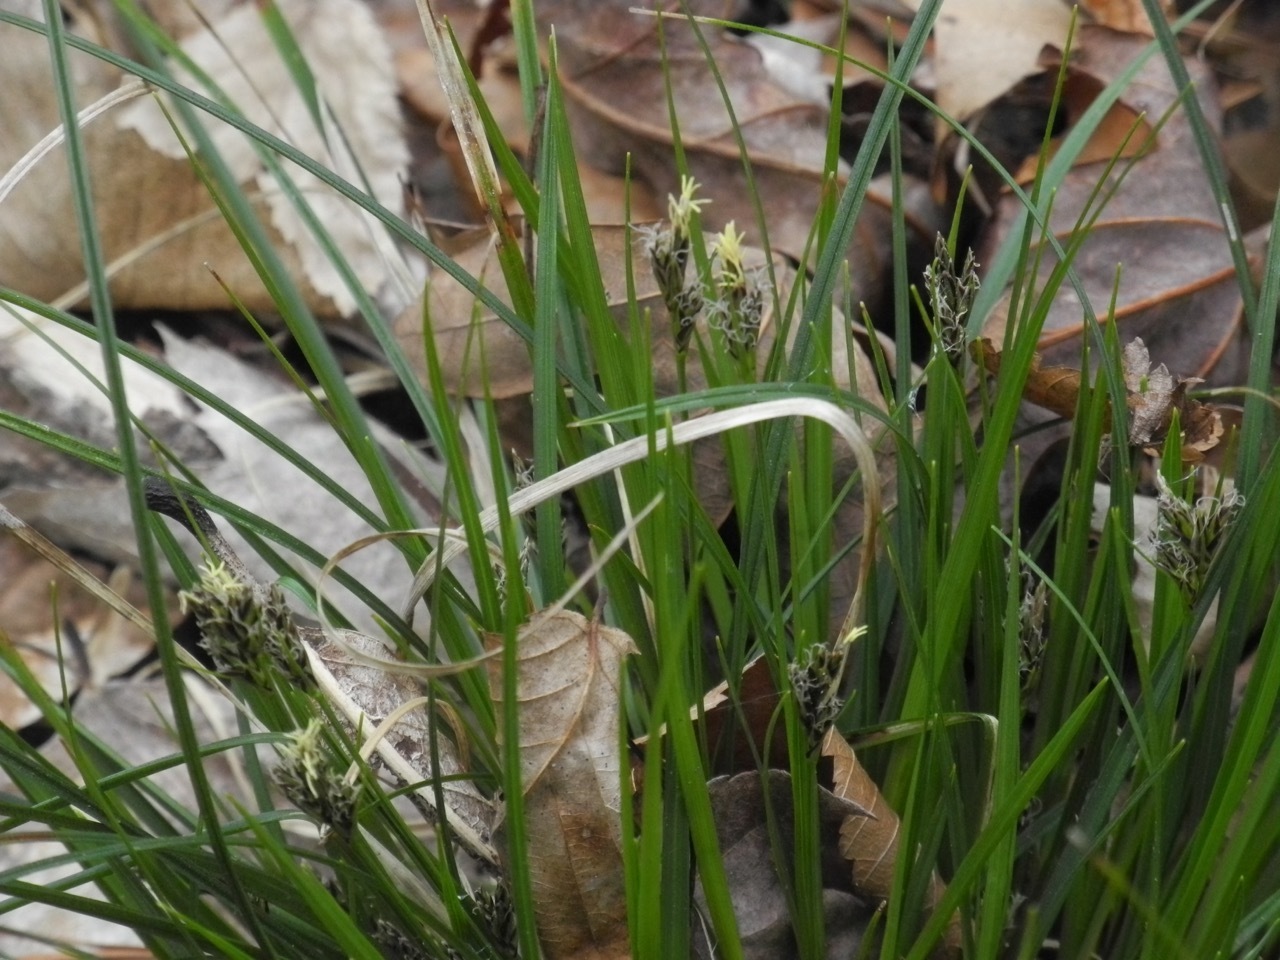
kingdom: Plantae
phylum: Tracheophyta
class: Liliopsida
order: Poales
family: Cyperaceae
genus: Carex
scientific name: Carex communis
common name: Colonial oak sedge
